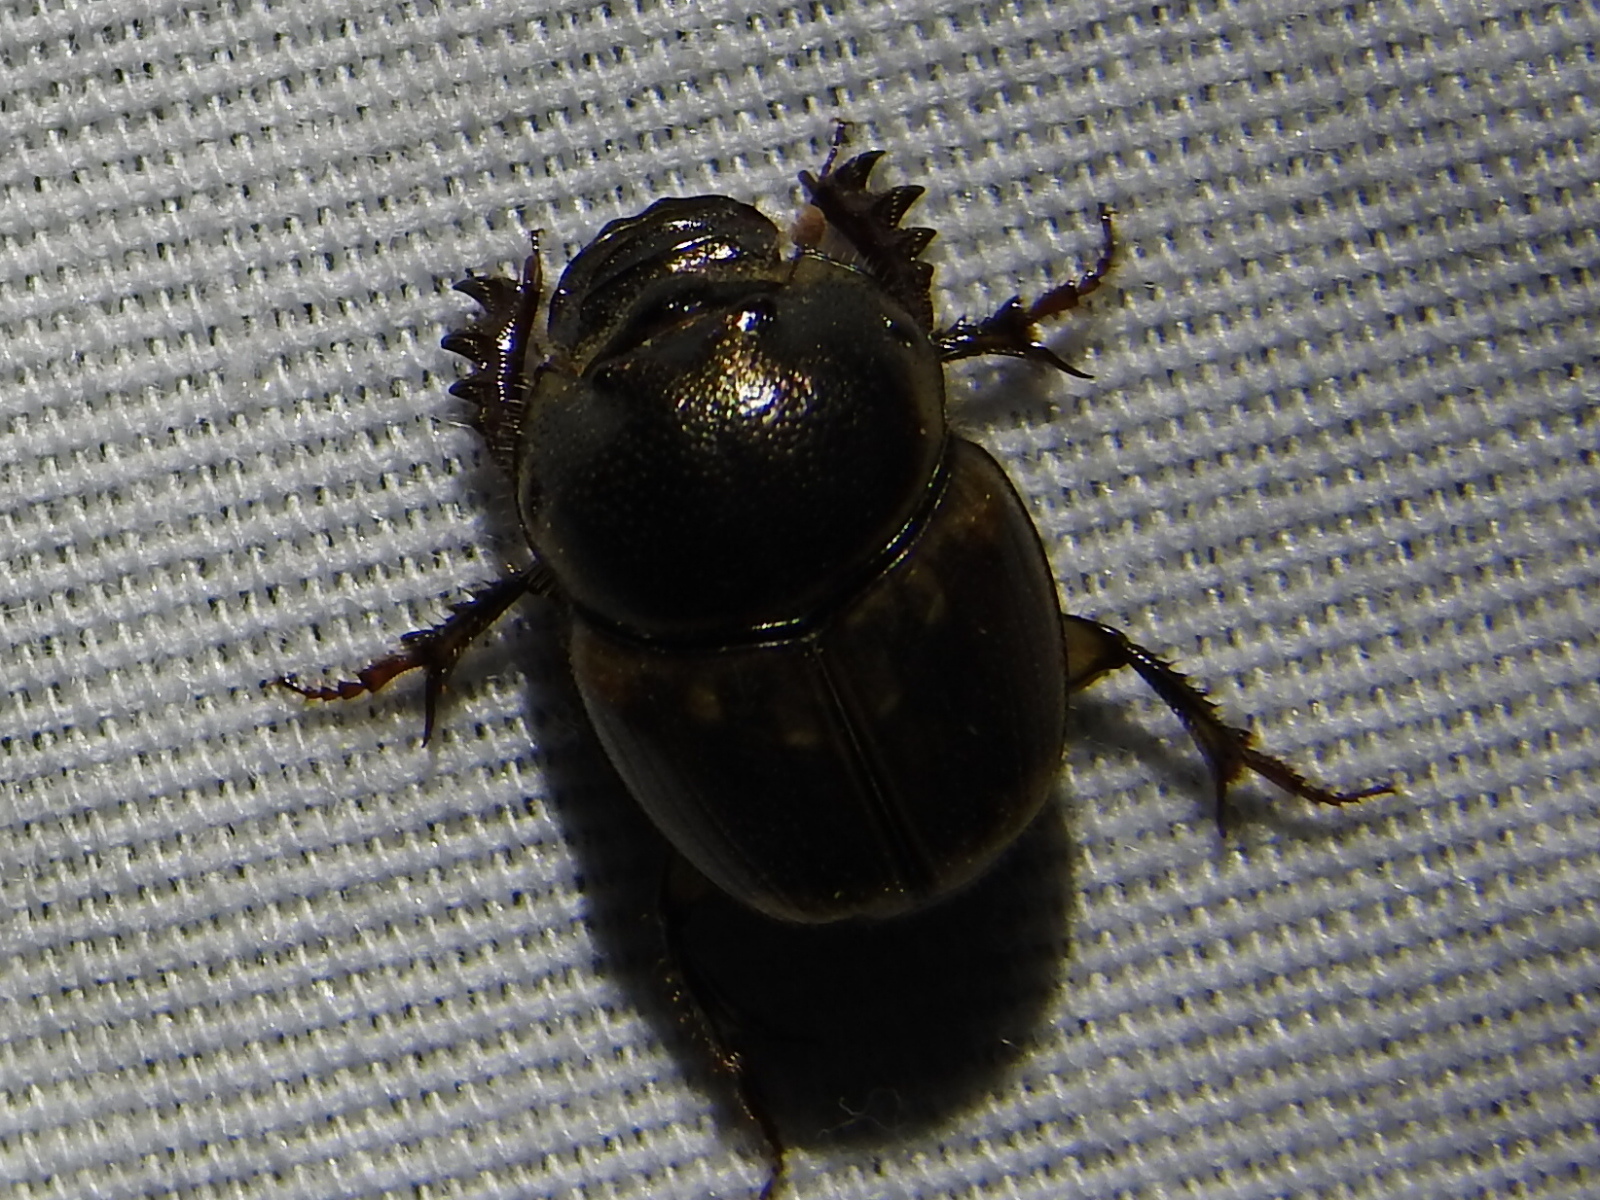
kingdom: Animalia
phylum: Arthropoda
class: Insecta
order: Coleoptera
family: Scarabaeidae
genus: Digitonthophagus
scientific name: Digitonthophagus gazella
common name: Brown dung beetle
